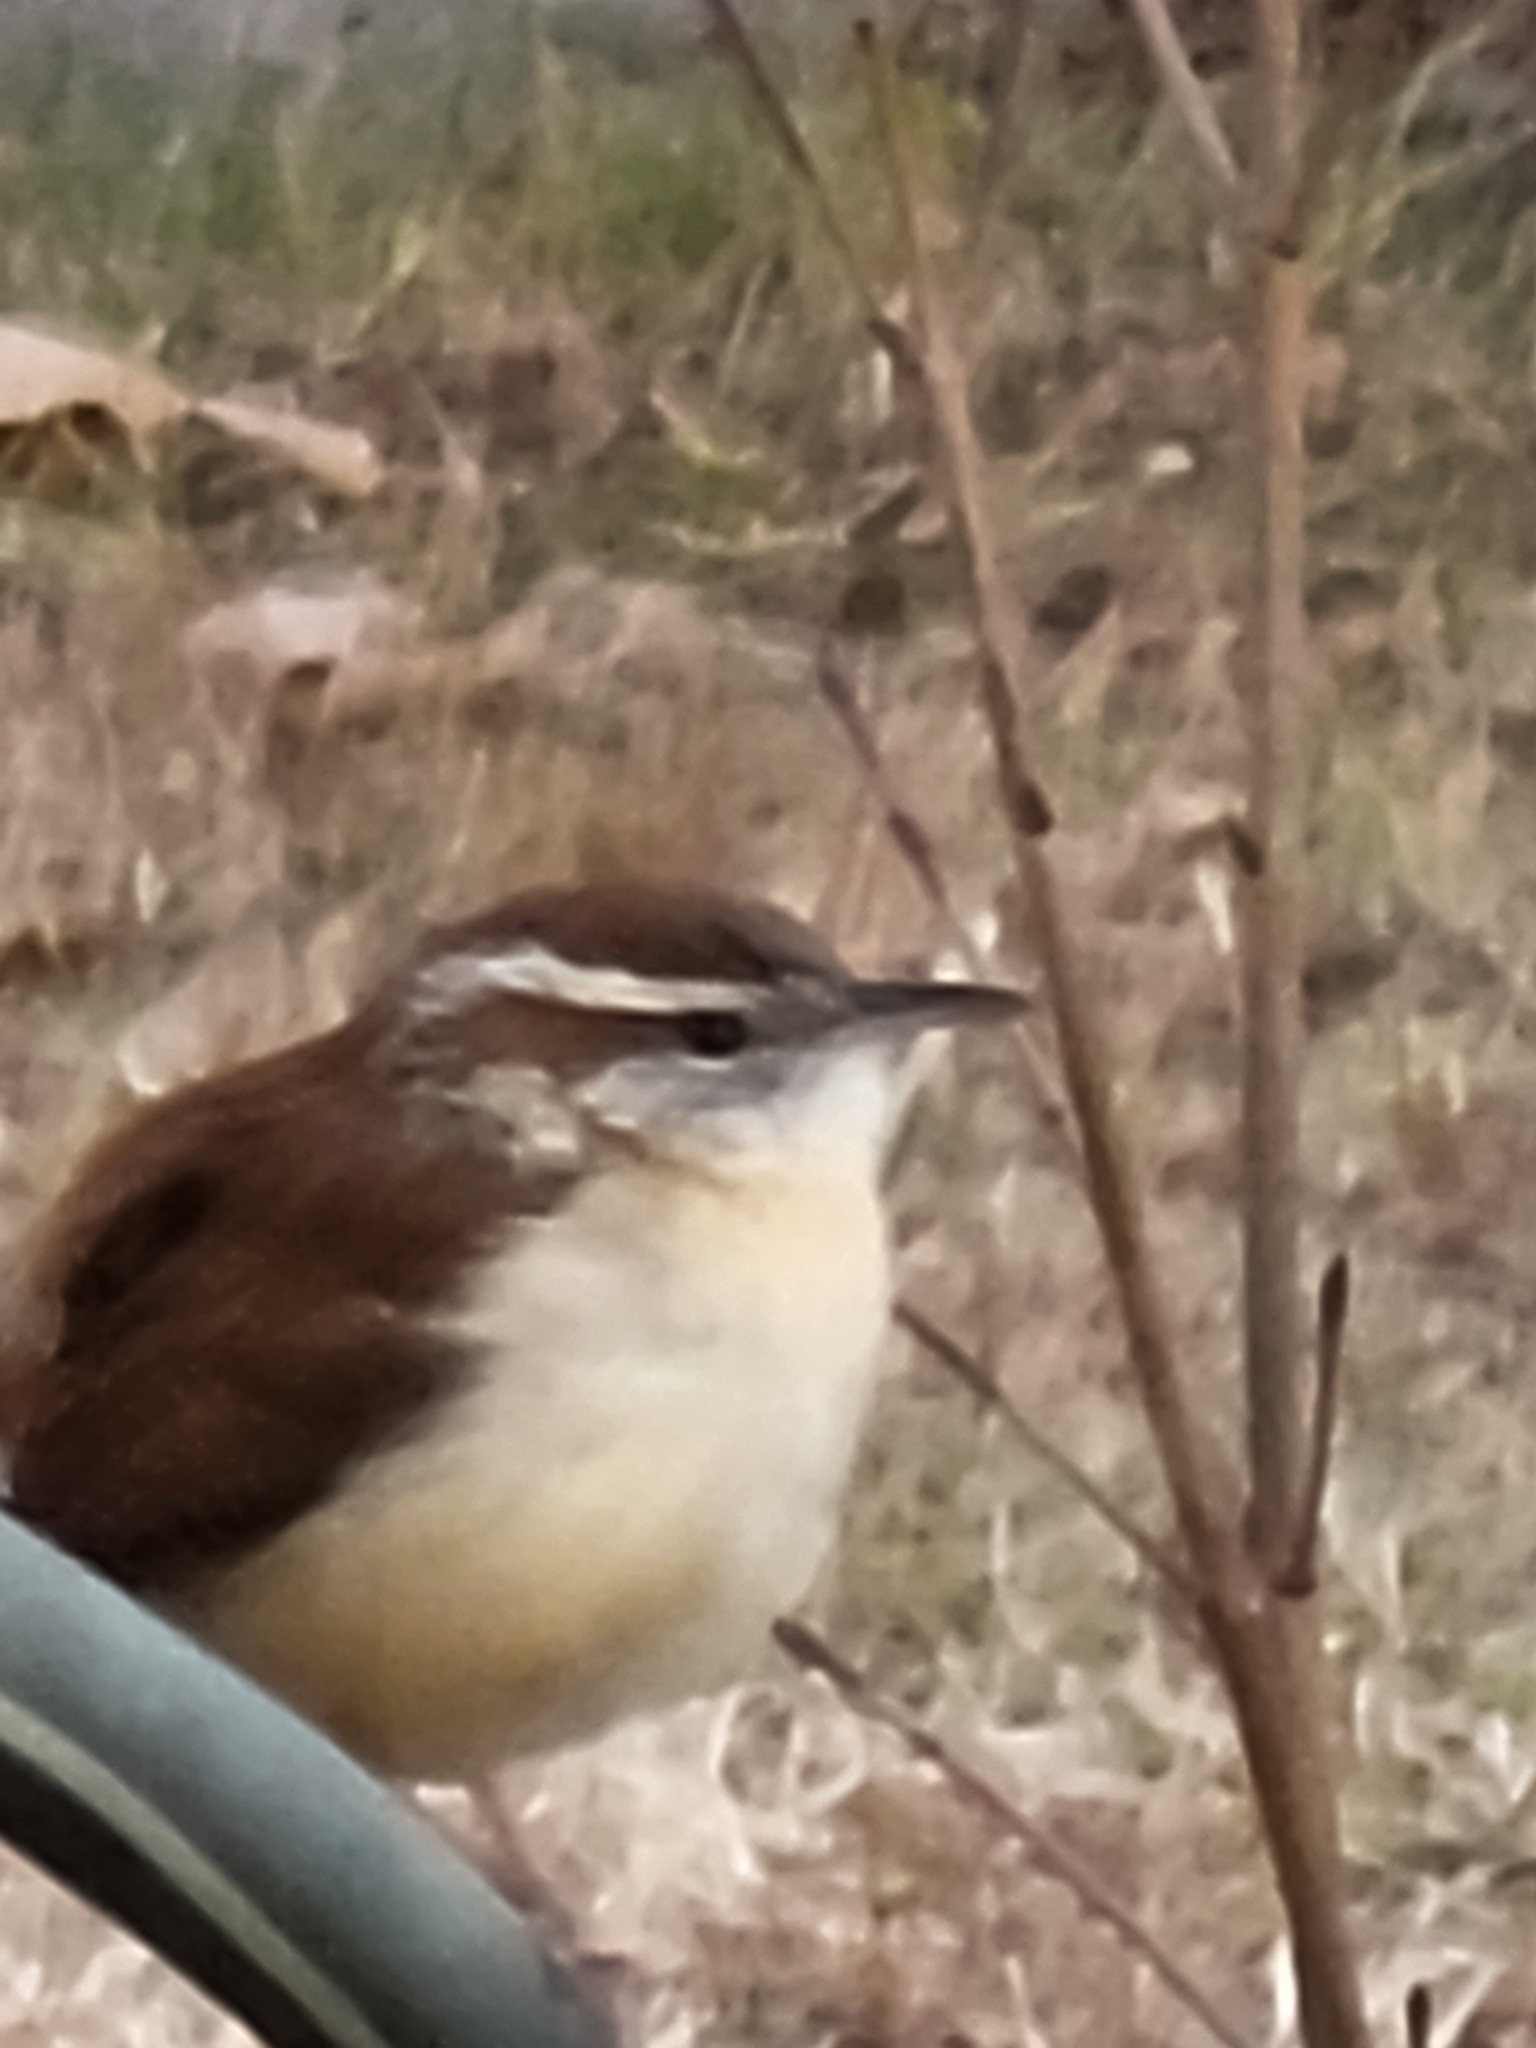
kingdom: Animalia
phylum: Chordata
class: Aves
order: Passeriformes
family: Troglodytidae
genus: Thryothorus
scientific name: Thryothorus ludovicianus
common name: Carolina wren
